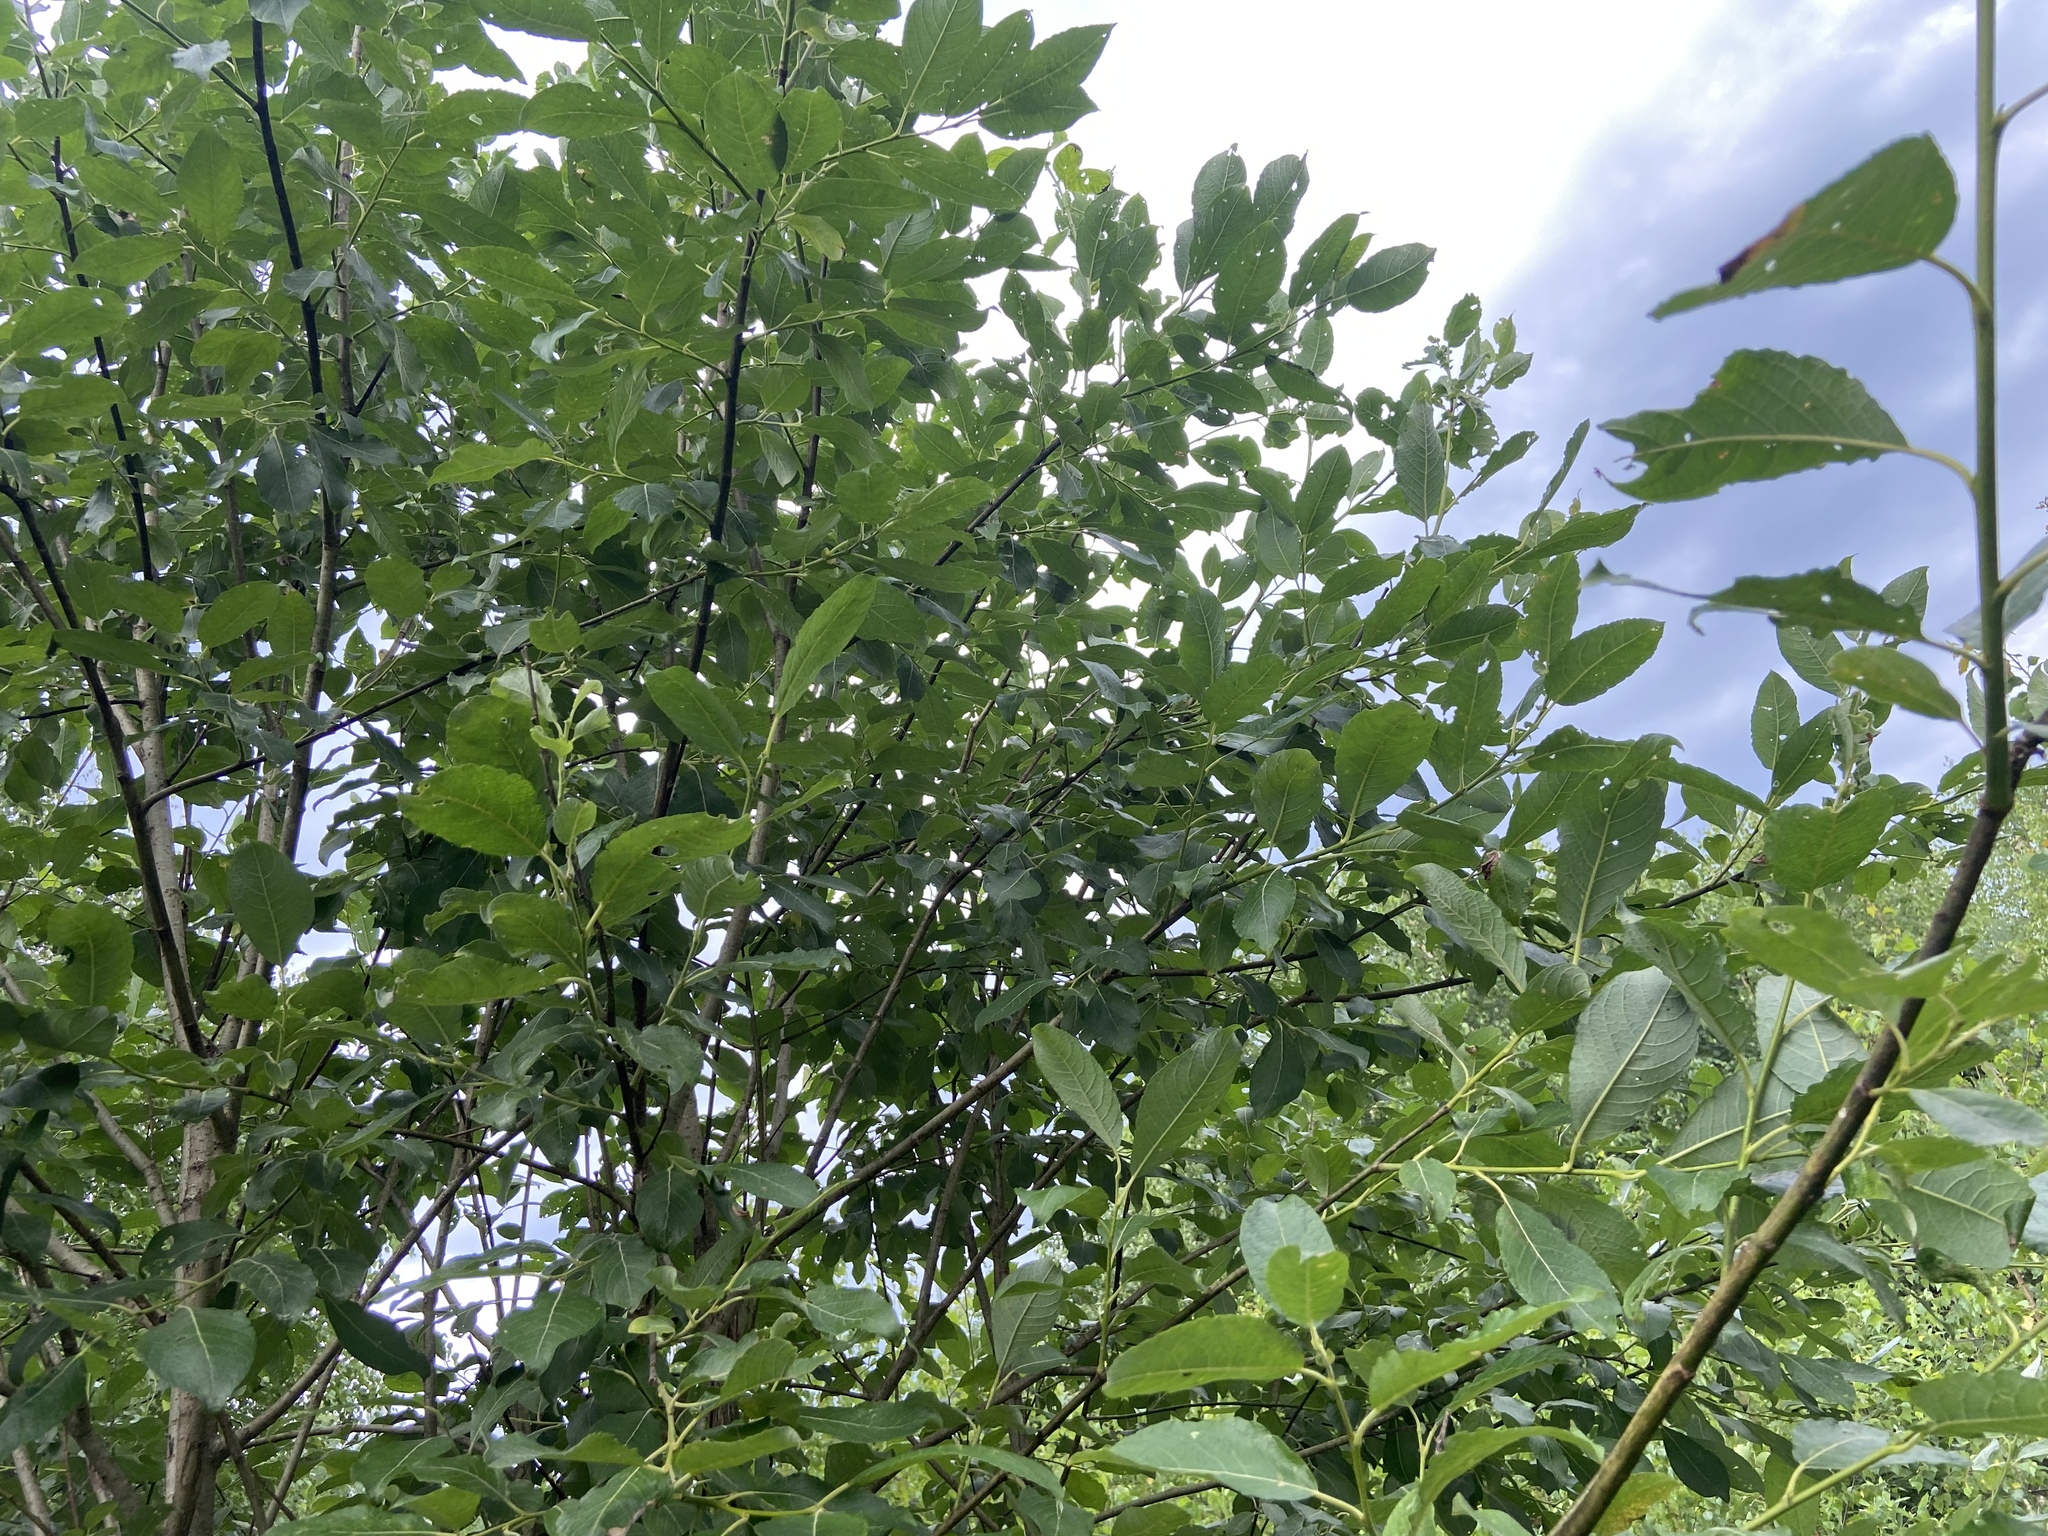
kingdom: Plantae
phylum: Tracheophyta
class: Magnoliopsida
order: Malpighiales
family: Salicaceae
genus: Salix
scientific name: Salix caprea
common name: Goat willow
